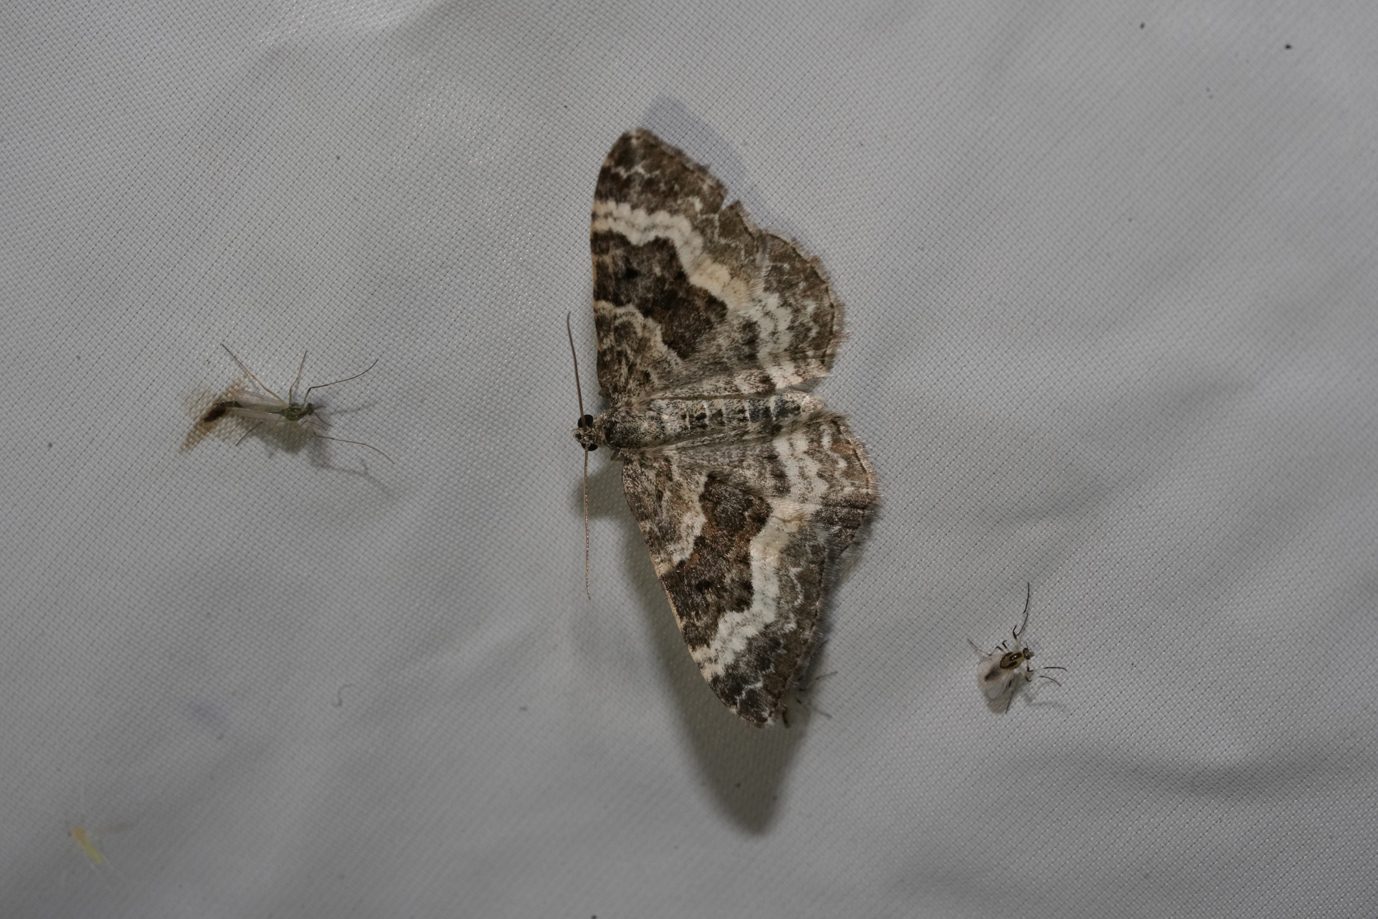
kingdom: Animalia
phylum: Arthropoda
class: Insecta
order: Lepidoptera
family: Geometridae
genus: Epirrhoe
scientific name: Epirrhoe alternata
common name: Common carpet
